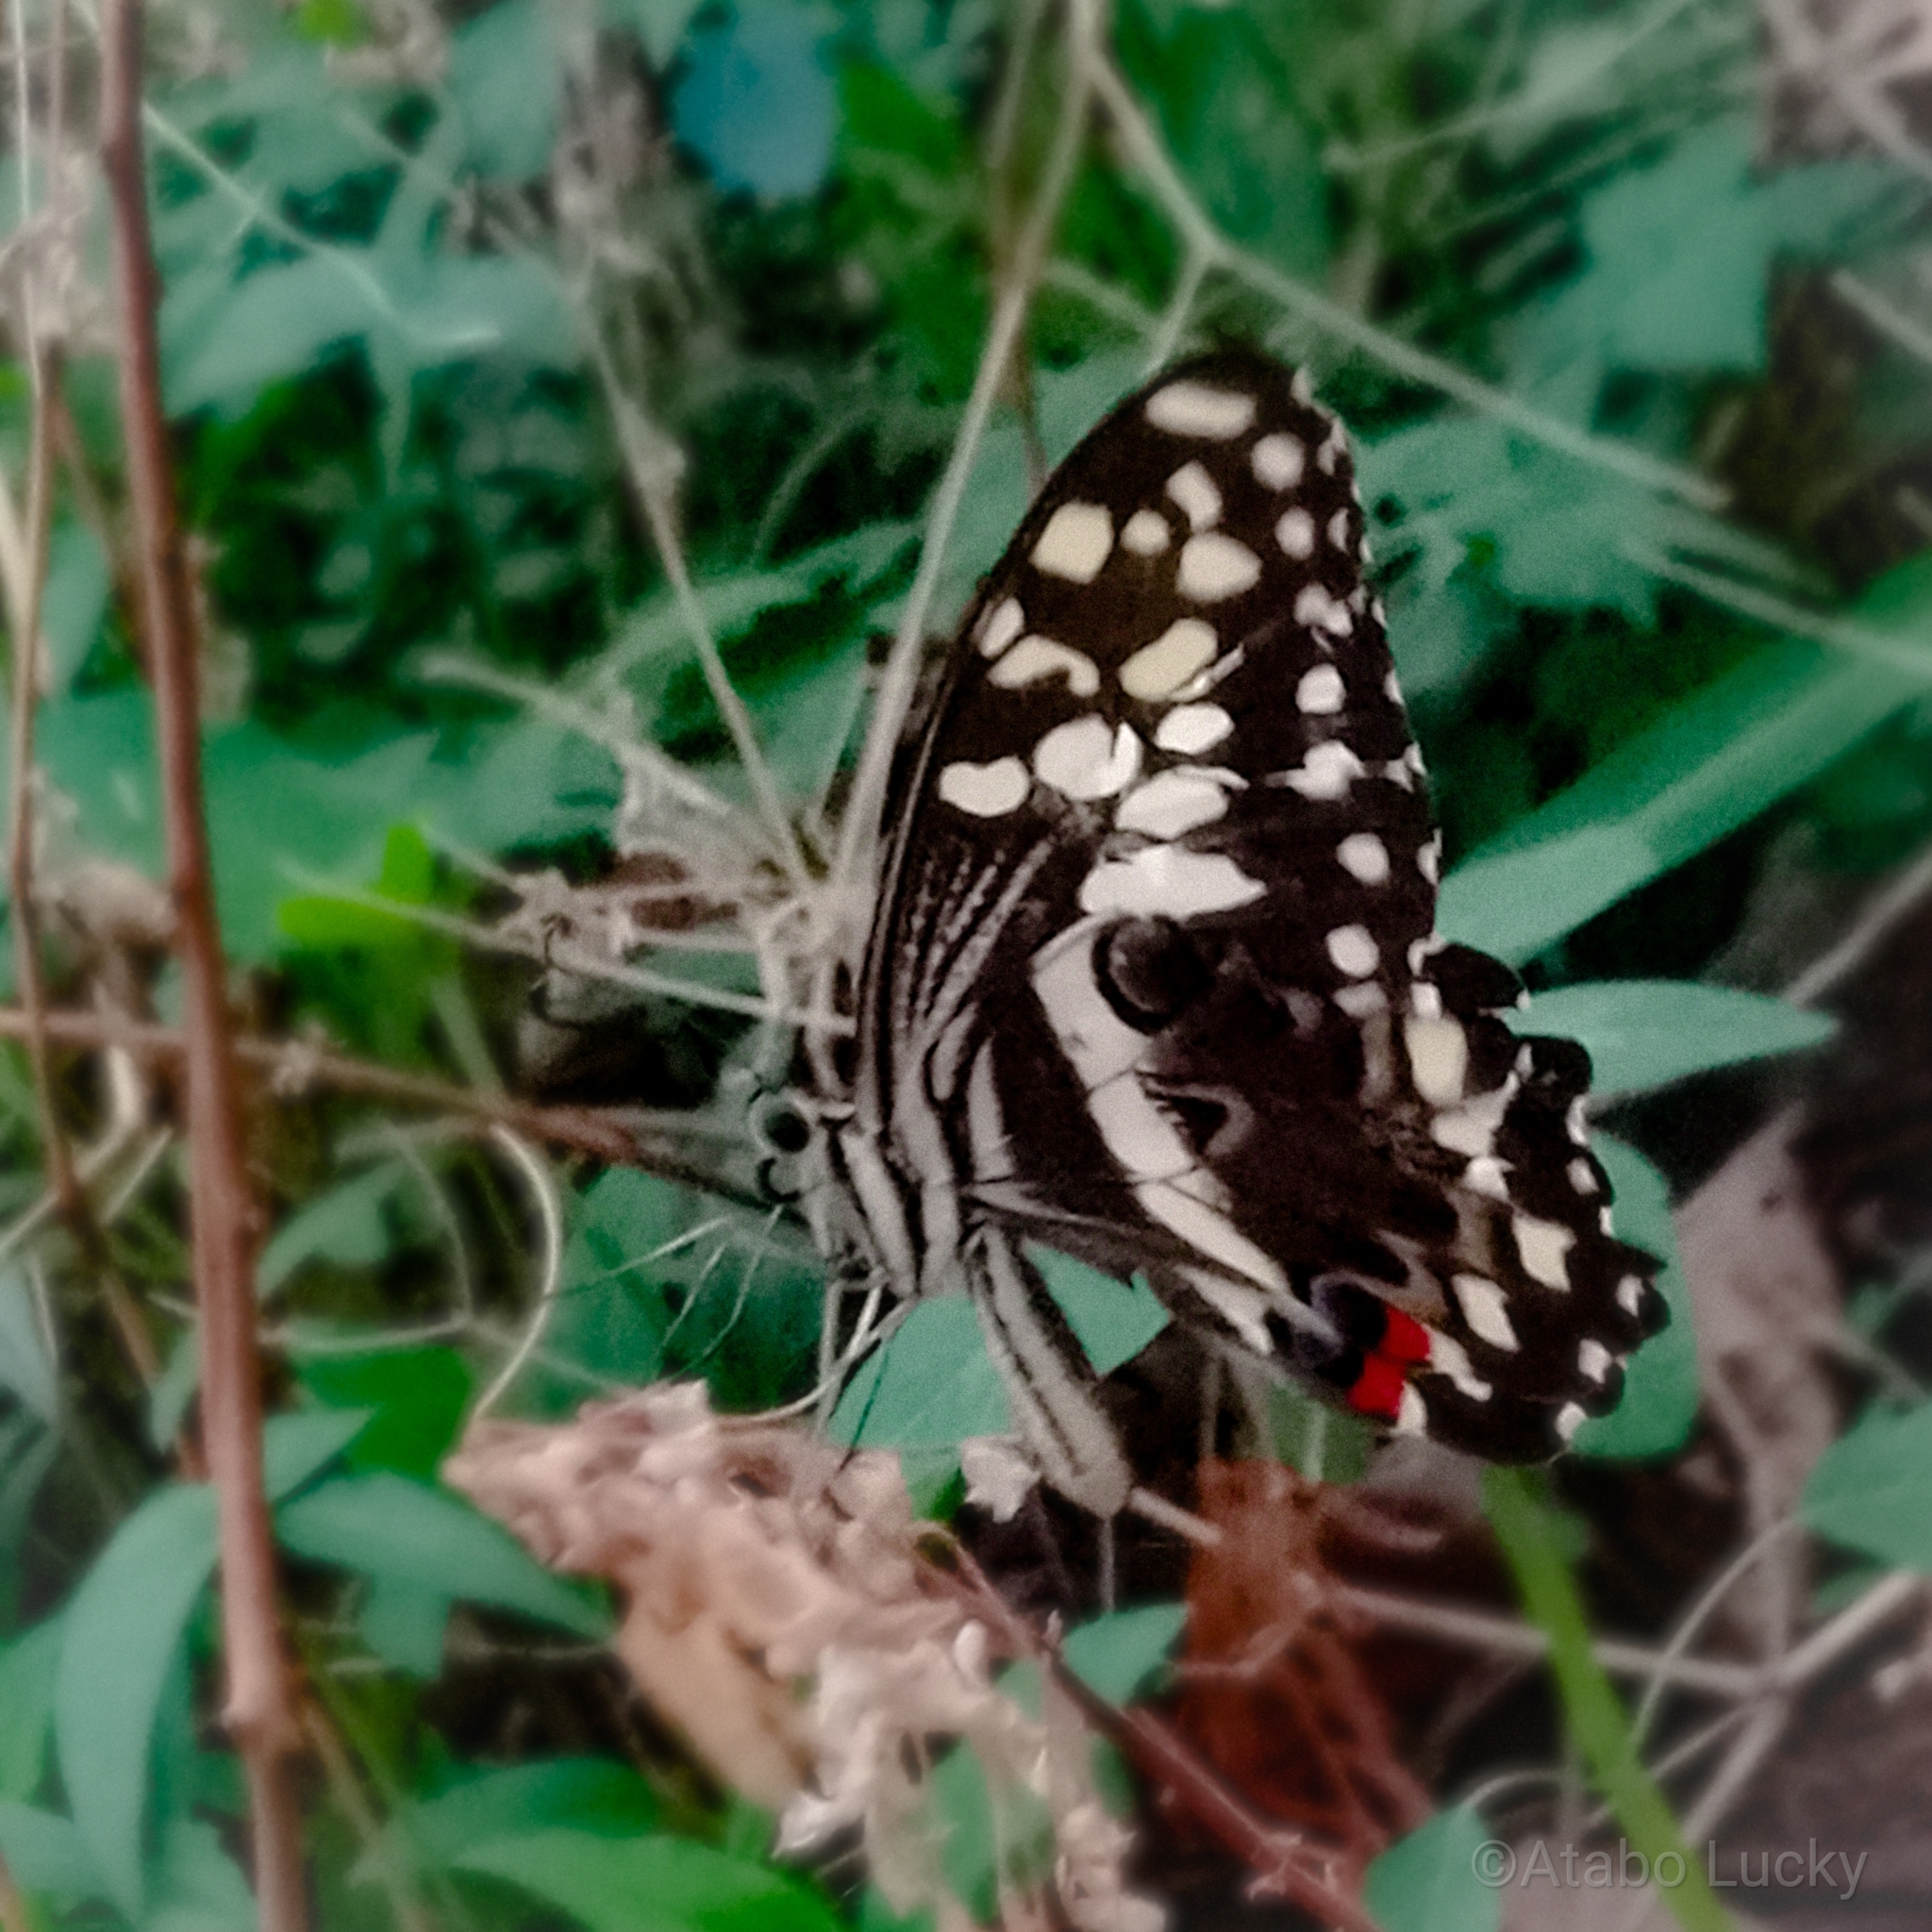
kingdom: Animalia
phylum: Arthropoda
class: Insecta
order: Lepidoptera
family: Papilionidae
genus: Papilio
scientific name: Papilio demodocus
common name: Christmas butterfly
